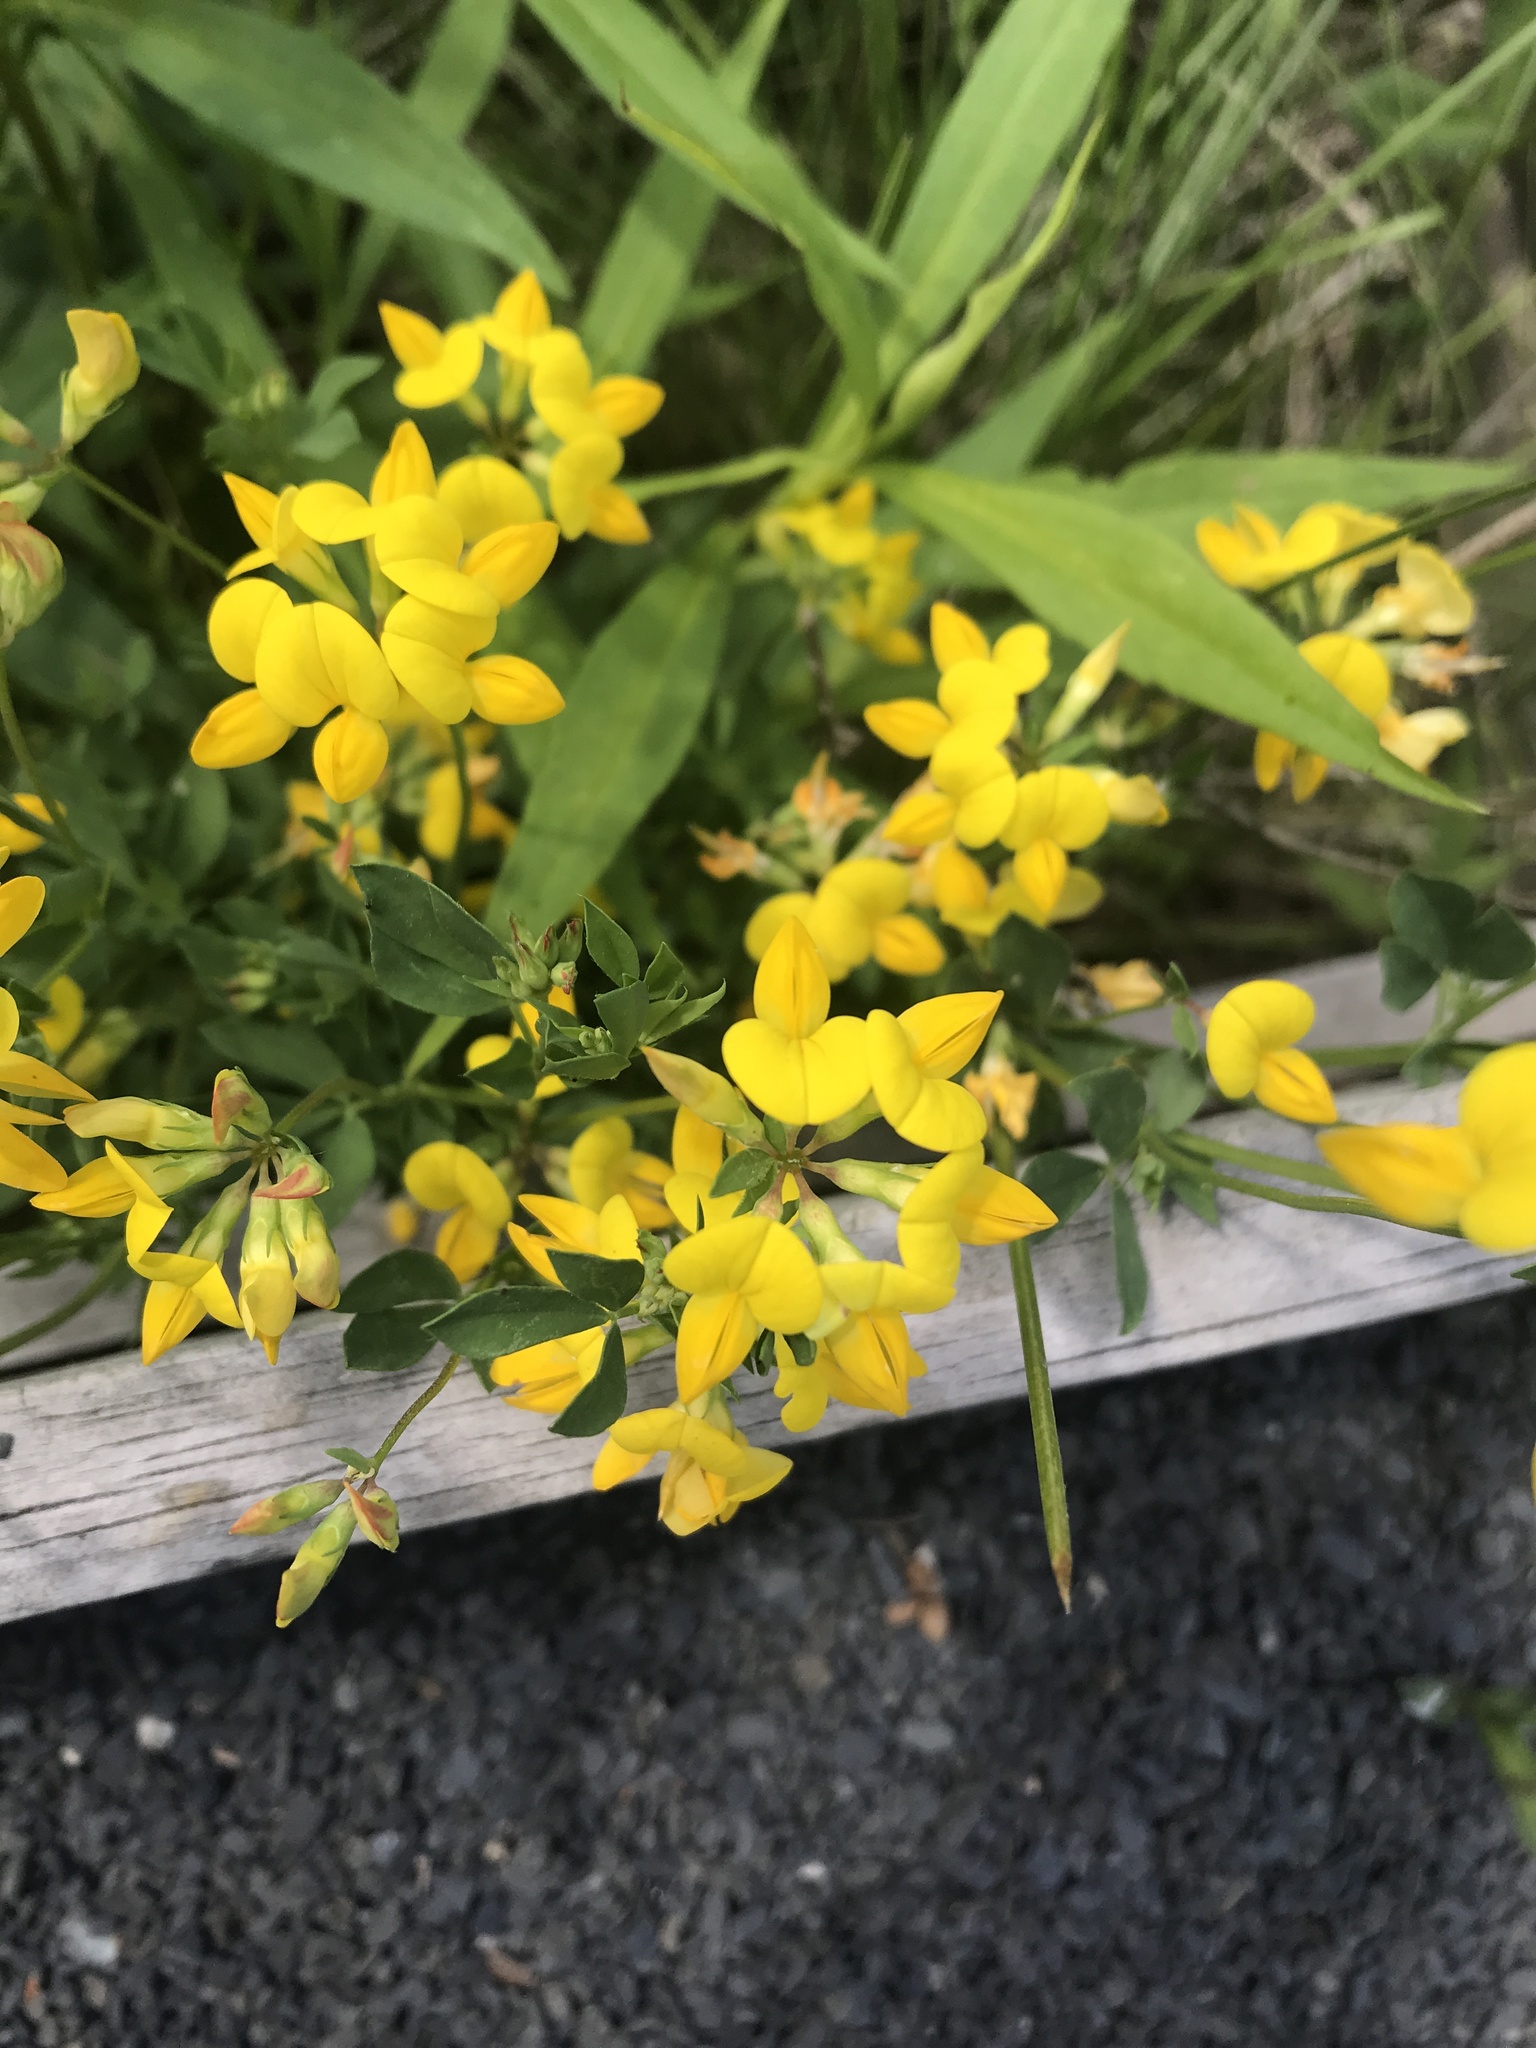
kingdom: Plantae
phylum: Tracheophyta
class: Magnoliopsida
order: Fabales
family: Fabaceae
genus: Lotus
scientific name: Lotus corniculatus
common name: Common bird's-foot-trefoil
